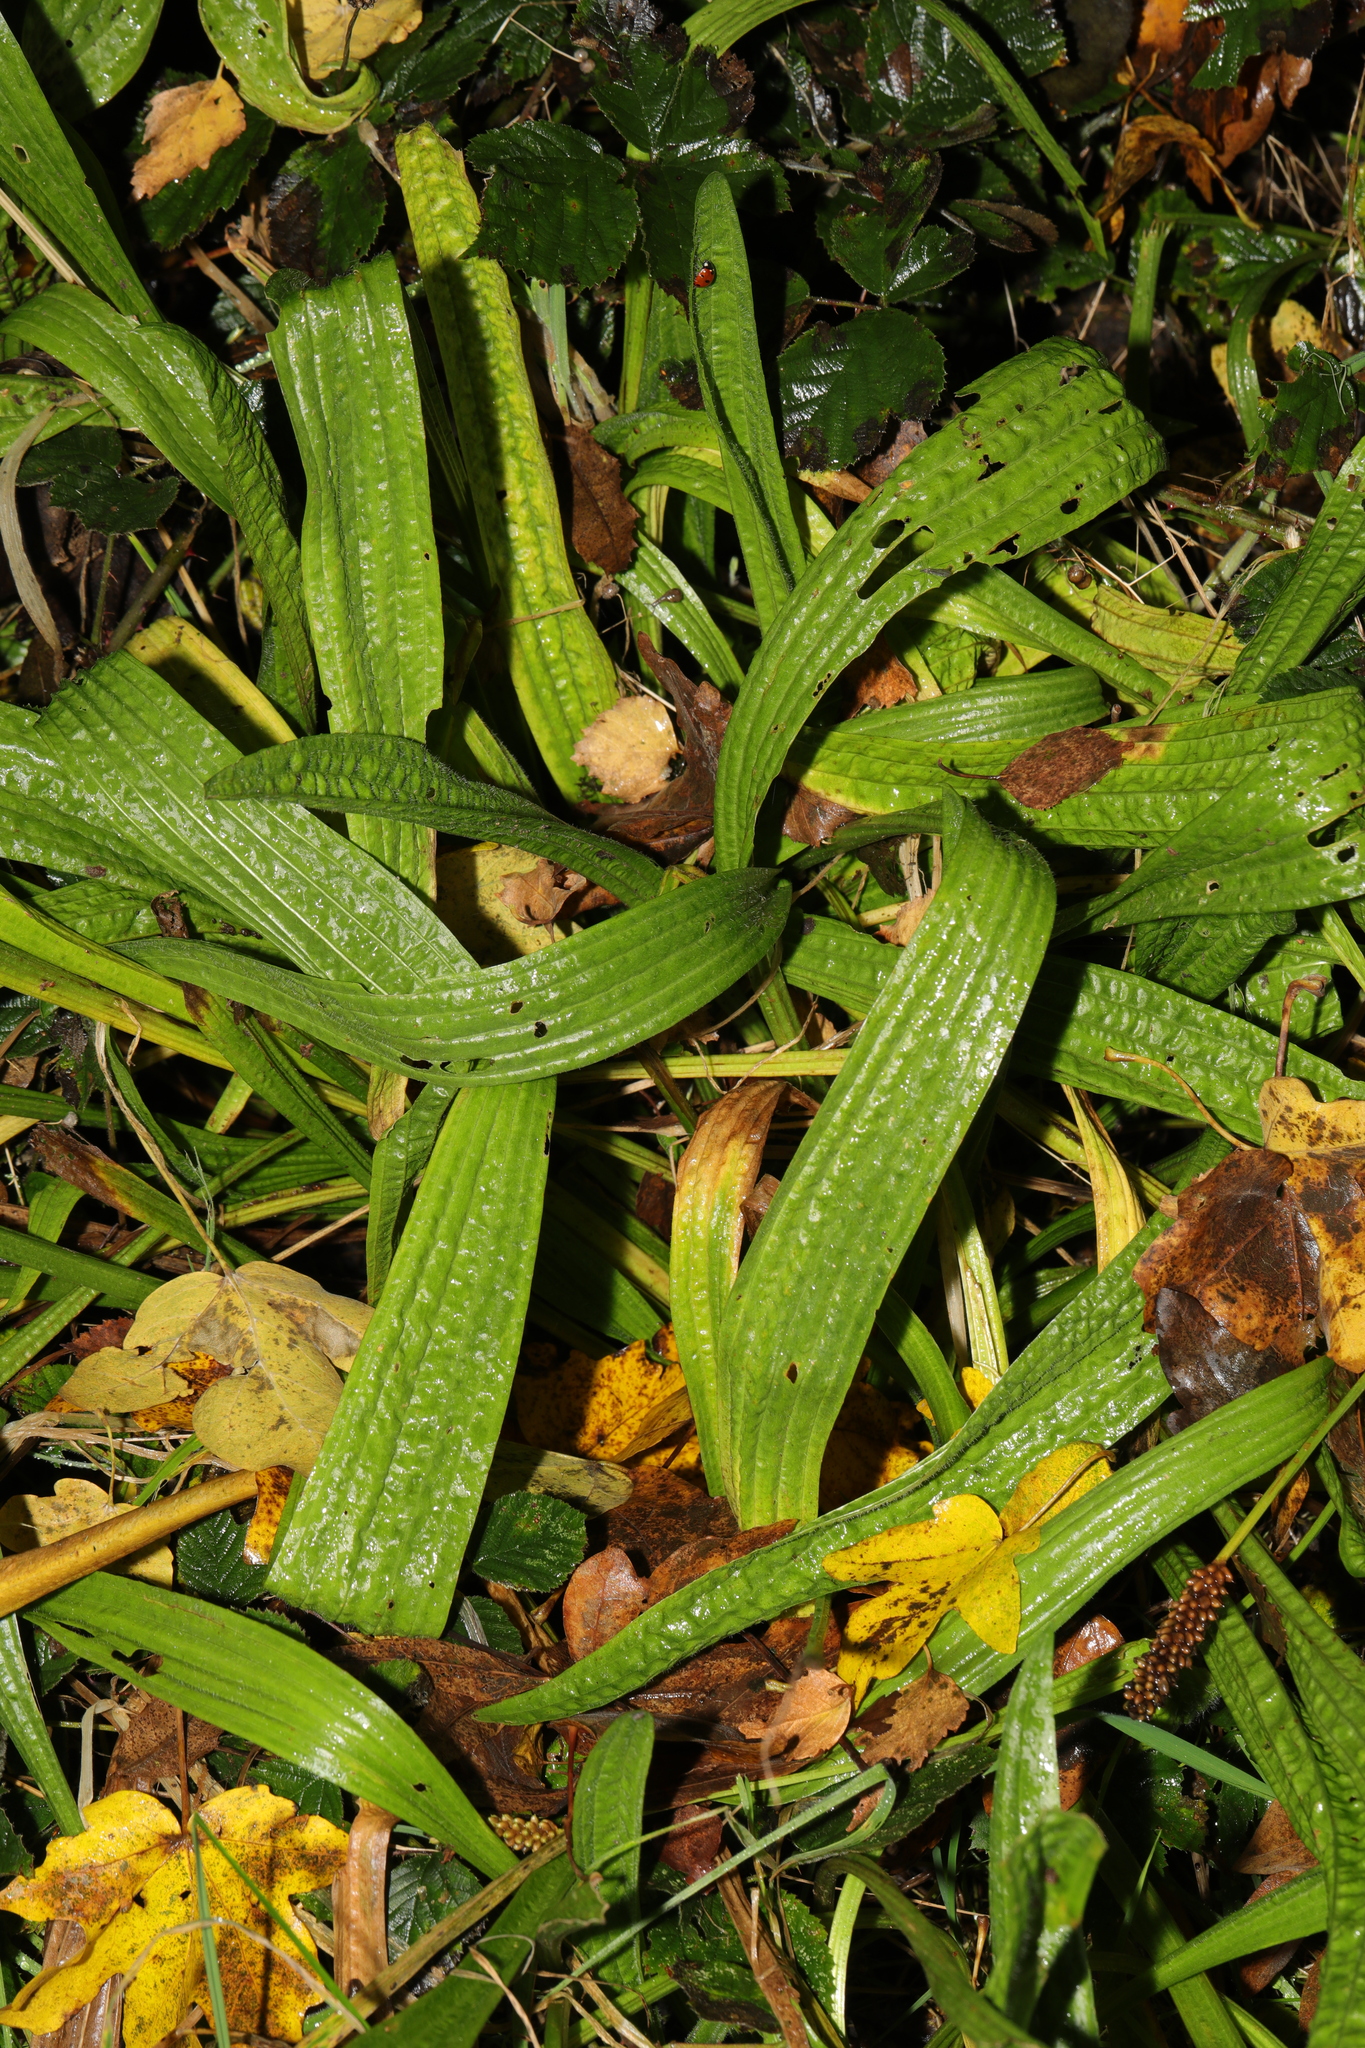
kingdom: Plantae
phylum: Tracheophyta
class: Magnoliopsida
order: Lamiales
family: Plantaginaceae
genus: Plantago
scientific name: Plantago lanceolata
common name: Ribwort plantain
